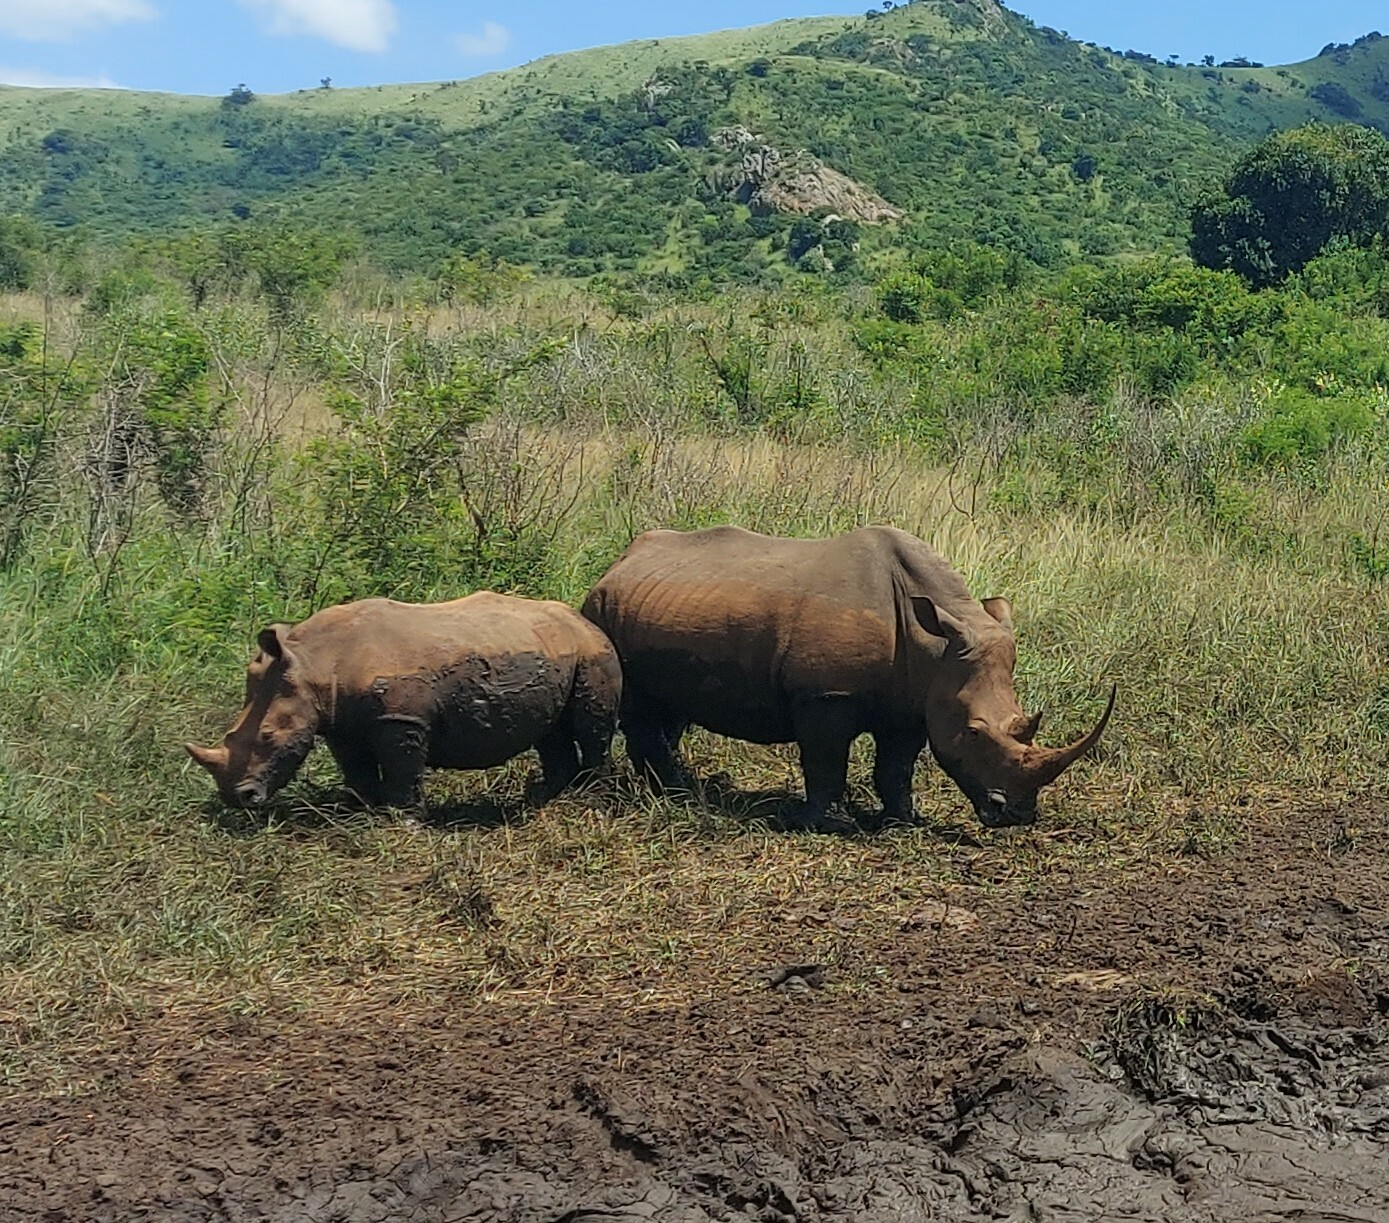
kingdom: Animalia
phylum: Chordata
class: Mammalia
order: Perissodactyla
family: Rhinocerotidae
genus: Ceratotherium
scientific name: Ceratotherium simum
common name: White rhinoceros
